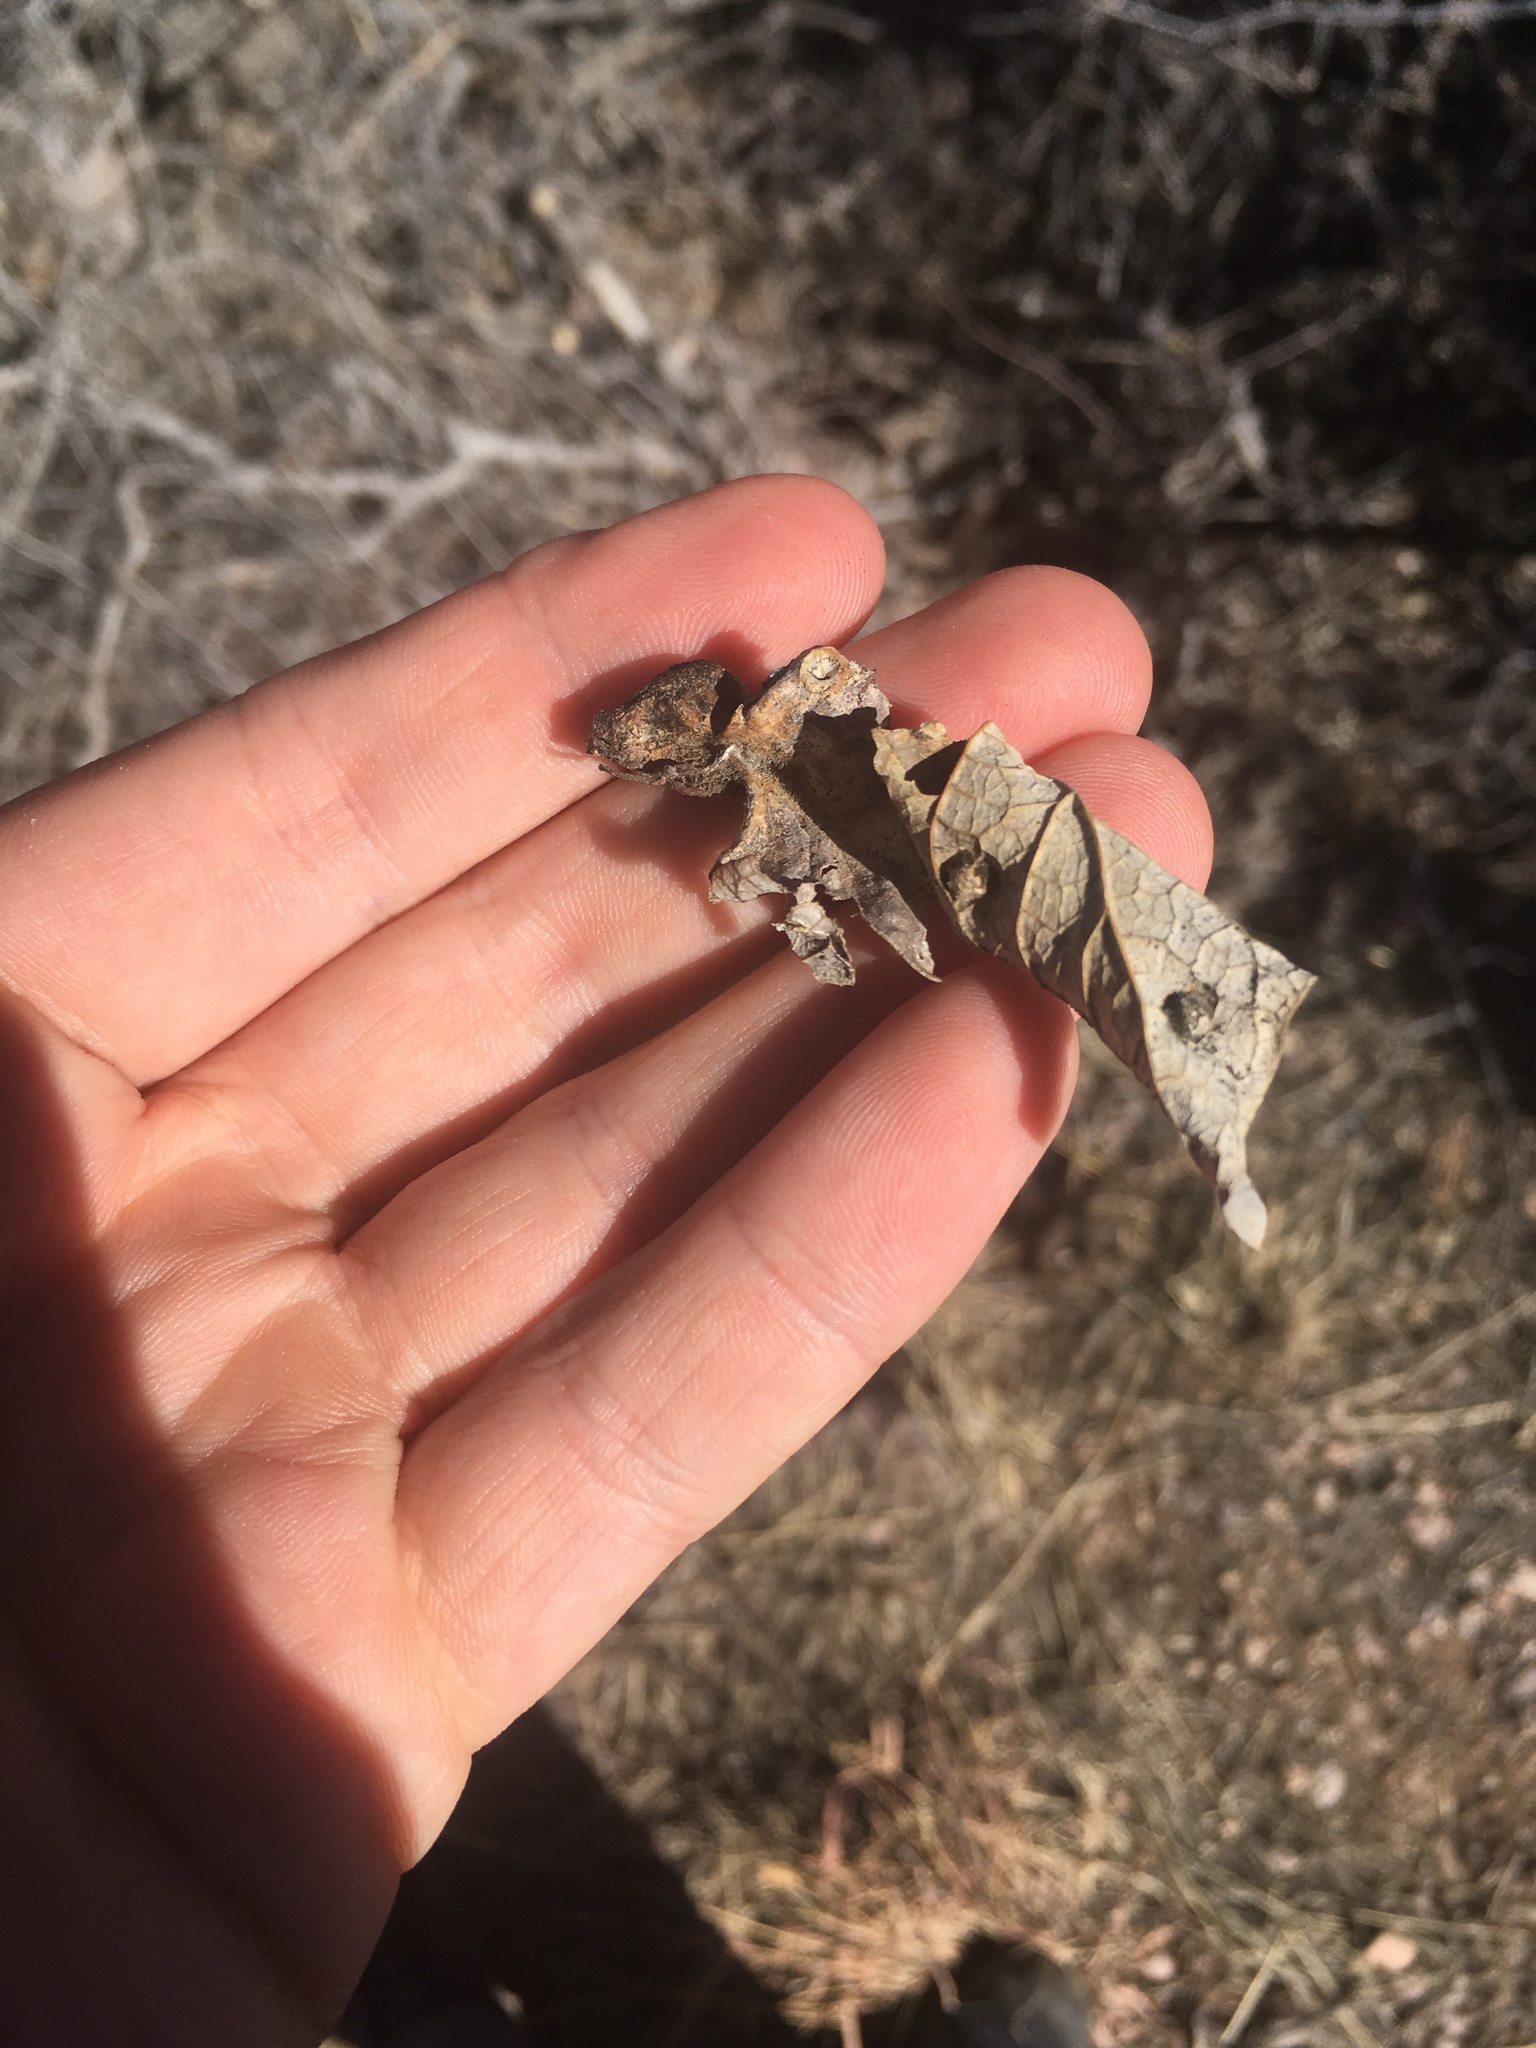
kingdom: Plantae
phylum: Tracheophyta
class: Magnoliopsida
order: Rosales
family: Cannabaceae
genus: Celtis
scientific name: Celtis reticulata
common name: Netleaf hackberry
